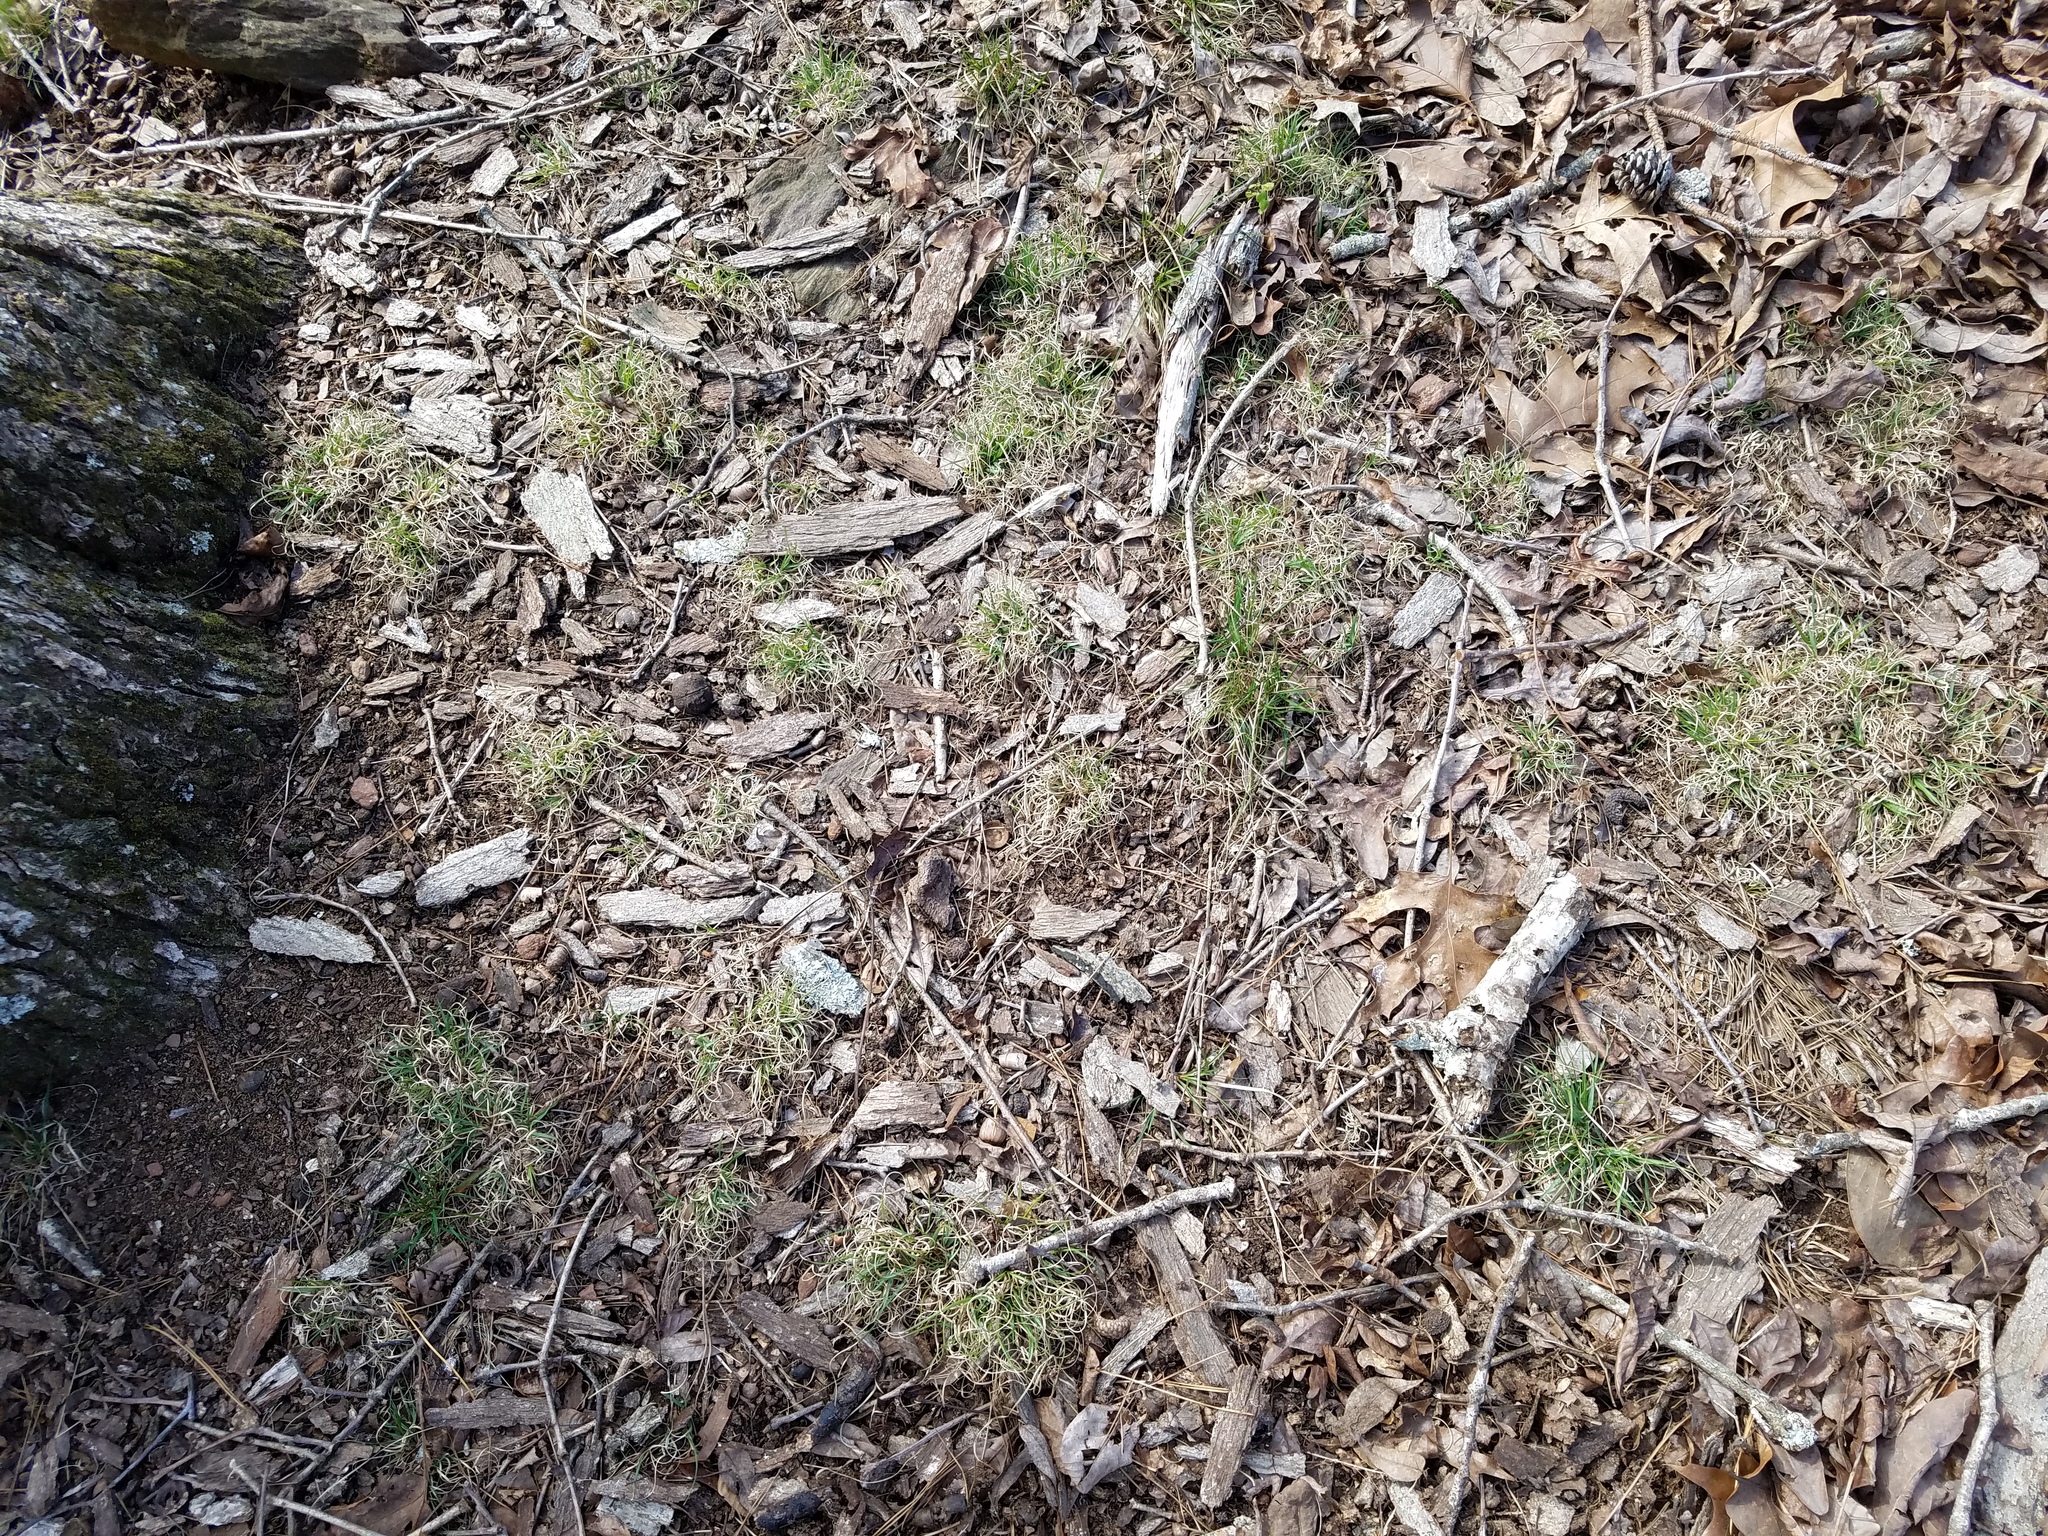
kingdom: Plantae
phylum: Tracheophyta
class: Liliopsida
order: Poales
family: Poaceae
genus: Danthonia
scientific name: Danthonia spicata
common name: Common wild oatgrass
